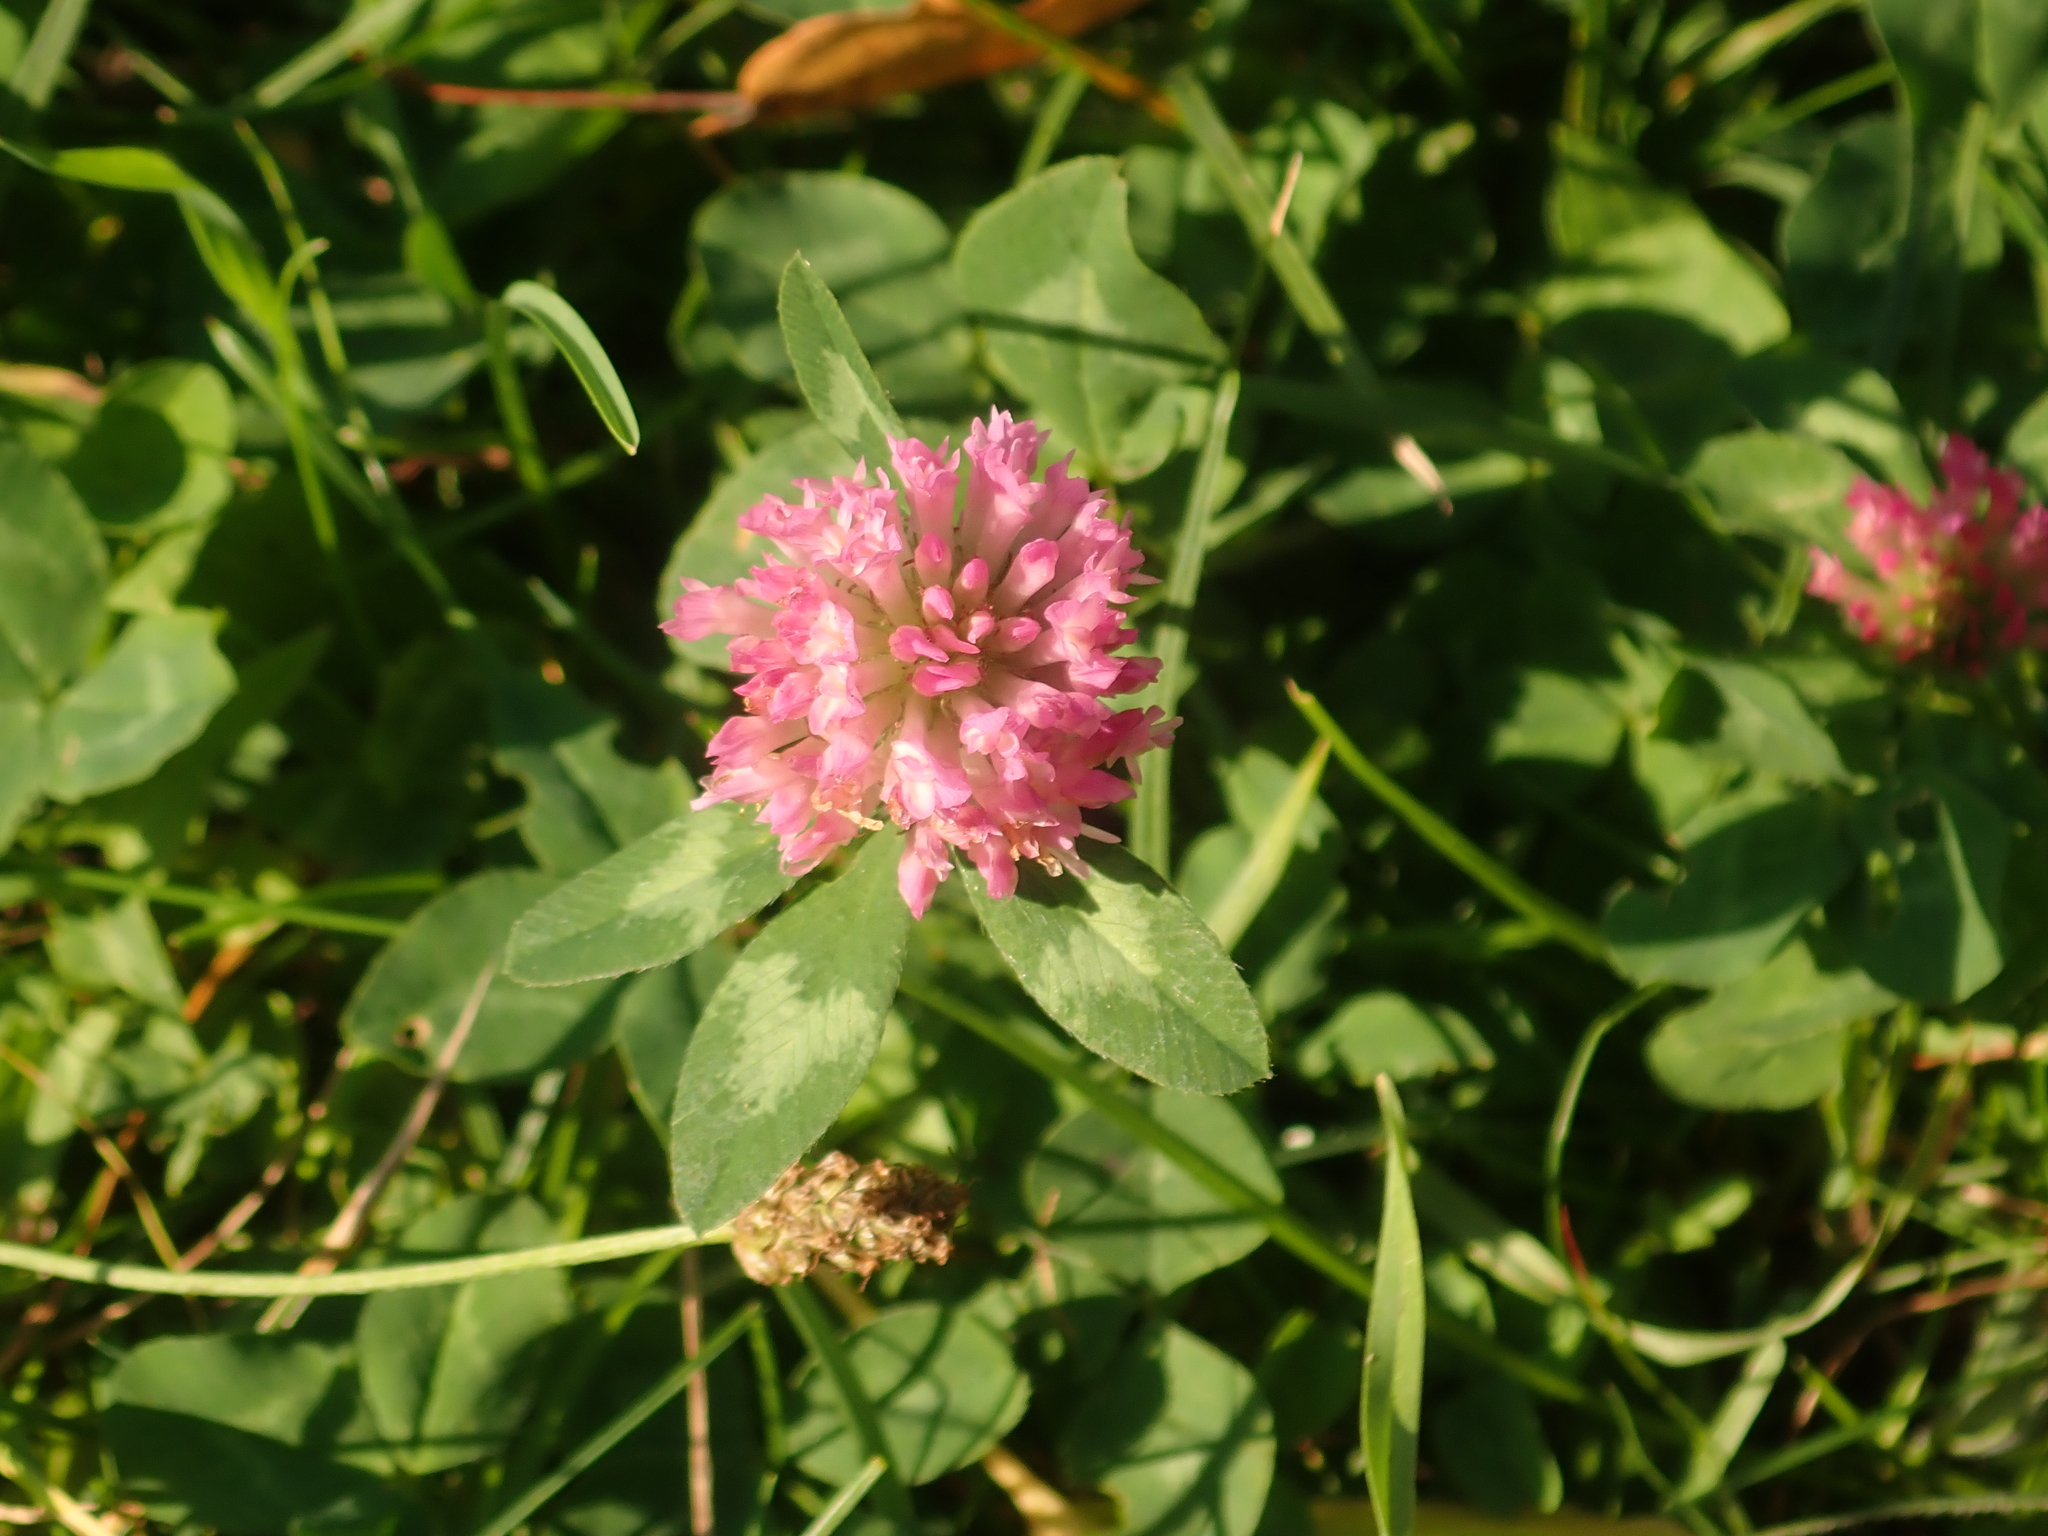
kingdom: Plantae
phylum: Tracheophyta
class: Magnoliopsida
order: Fabales
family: Fabaceae
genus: Trifolium
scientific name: Trifolium pratense
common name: Red clover
